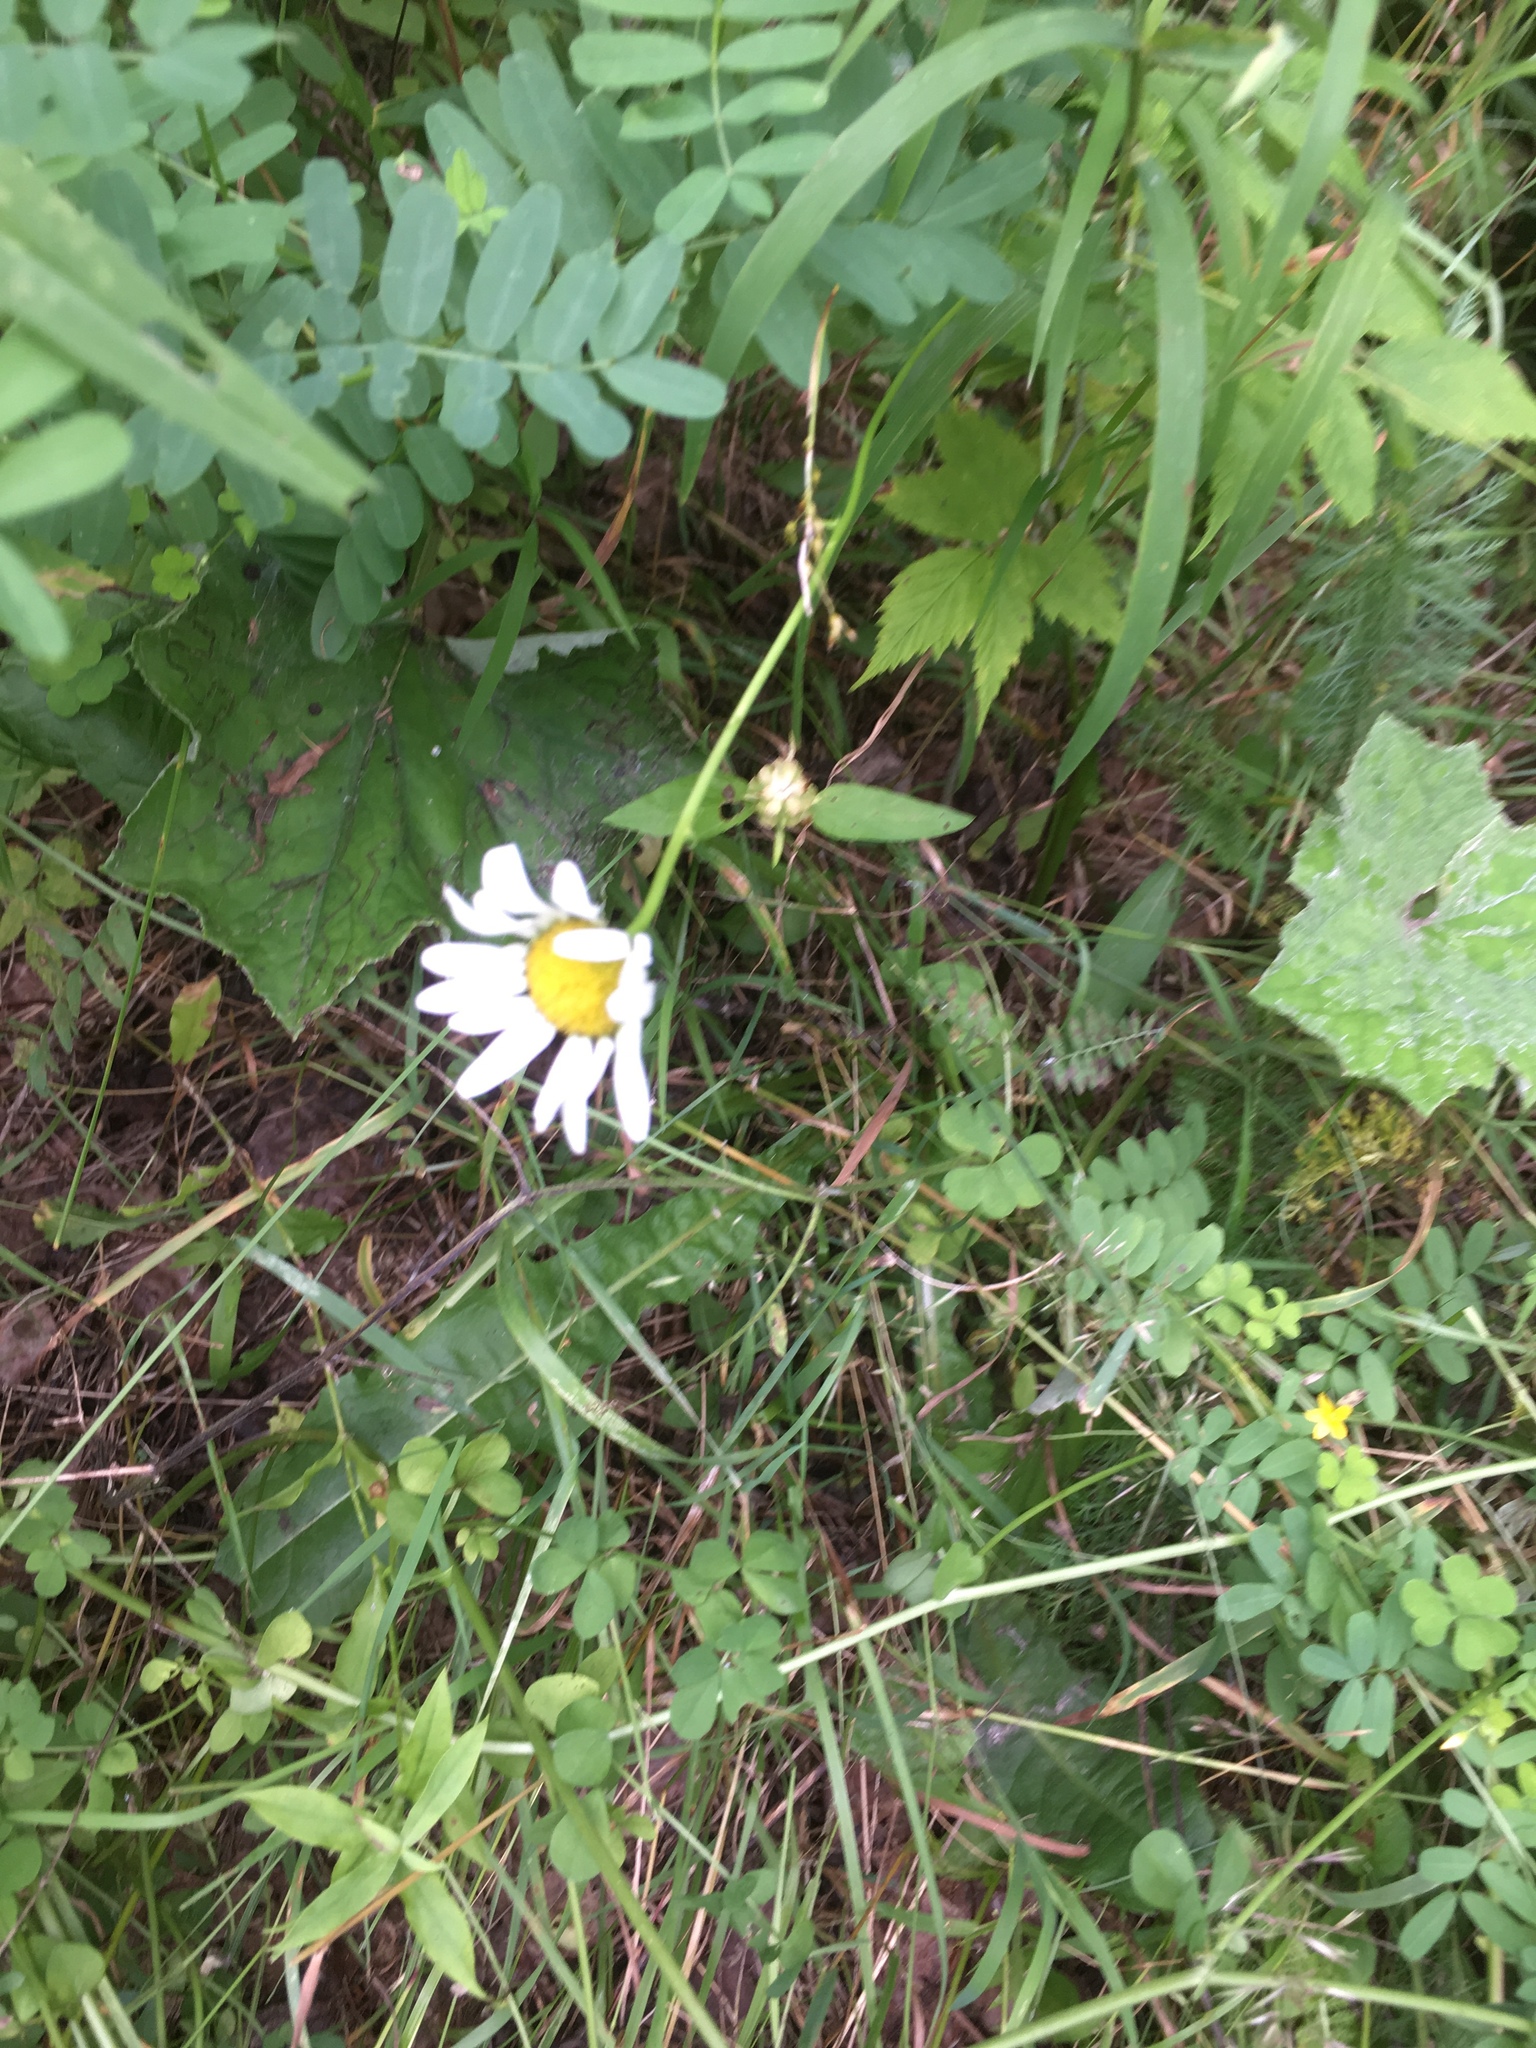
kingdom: Plantae
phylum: Tracheophyta
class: Magnoliopsida
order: Asterales
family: Asteraceae
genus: Leucanthemum
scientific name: Leucanthemum vulgare
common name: Oxeye daisy
